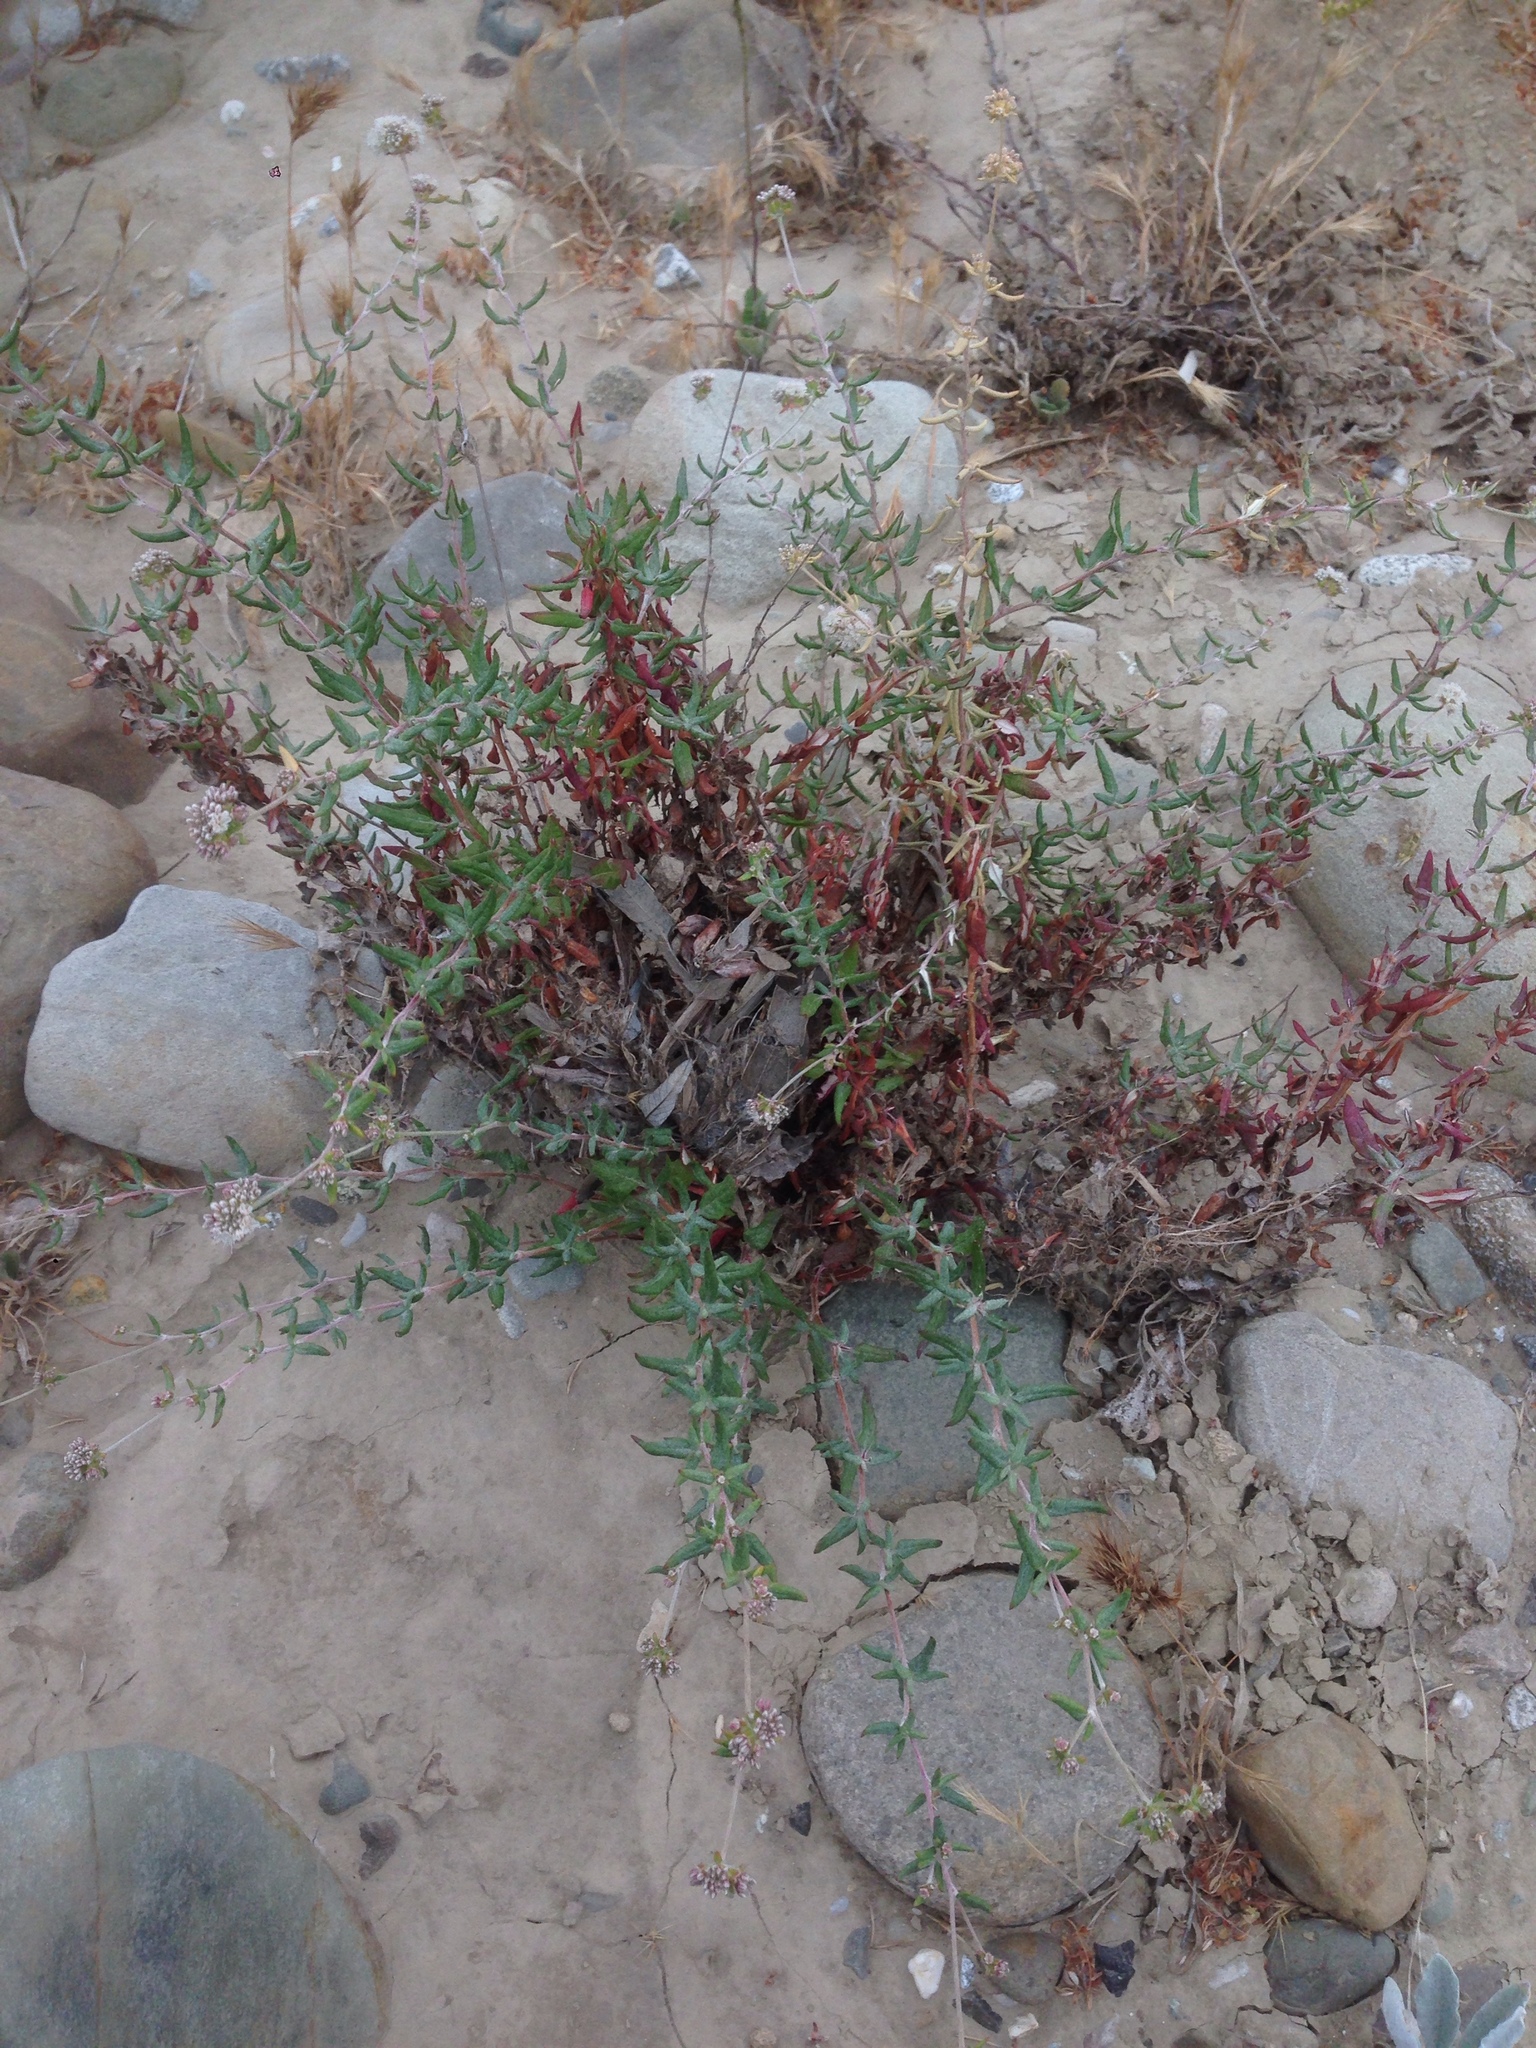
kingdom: Plantae
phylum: Tracheophyta
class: Magnoliopsida
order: Caryophyllales
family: Polygonaceae
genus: Eriogonum
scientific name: Eriogonum parvifolium
